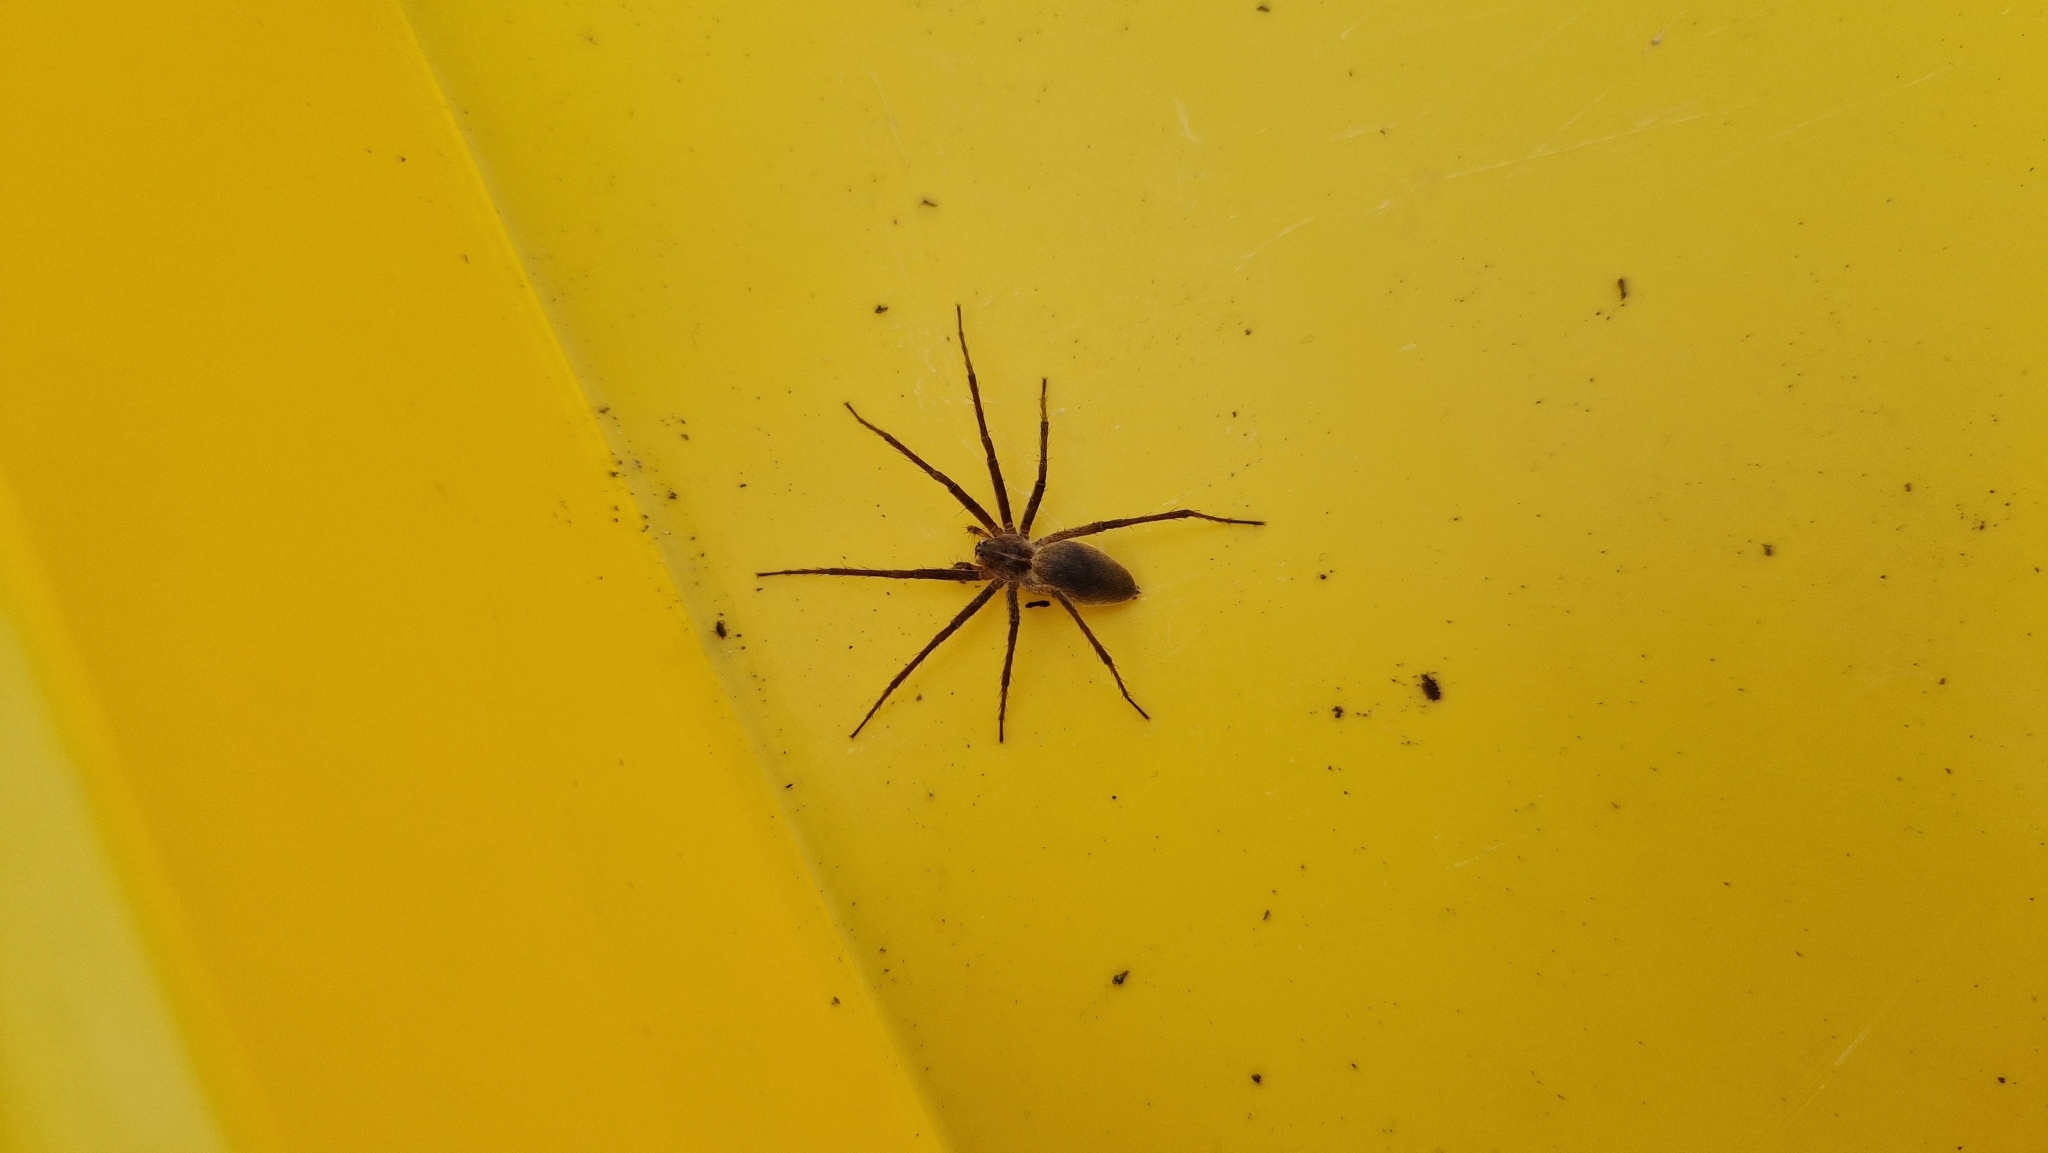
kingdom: Animalia
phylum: Arthropoda
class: Arachnida
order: Araneae
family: Pisauridae
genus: Pisaura
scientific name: Pisaura mirabilis
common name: Tent spider
